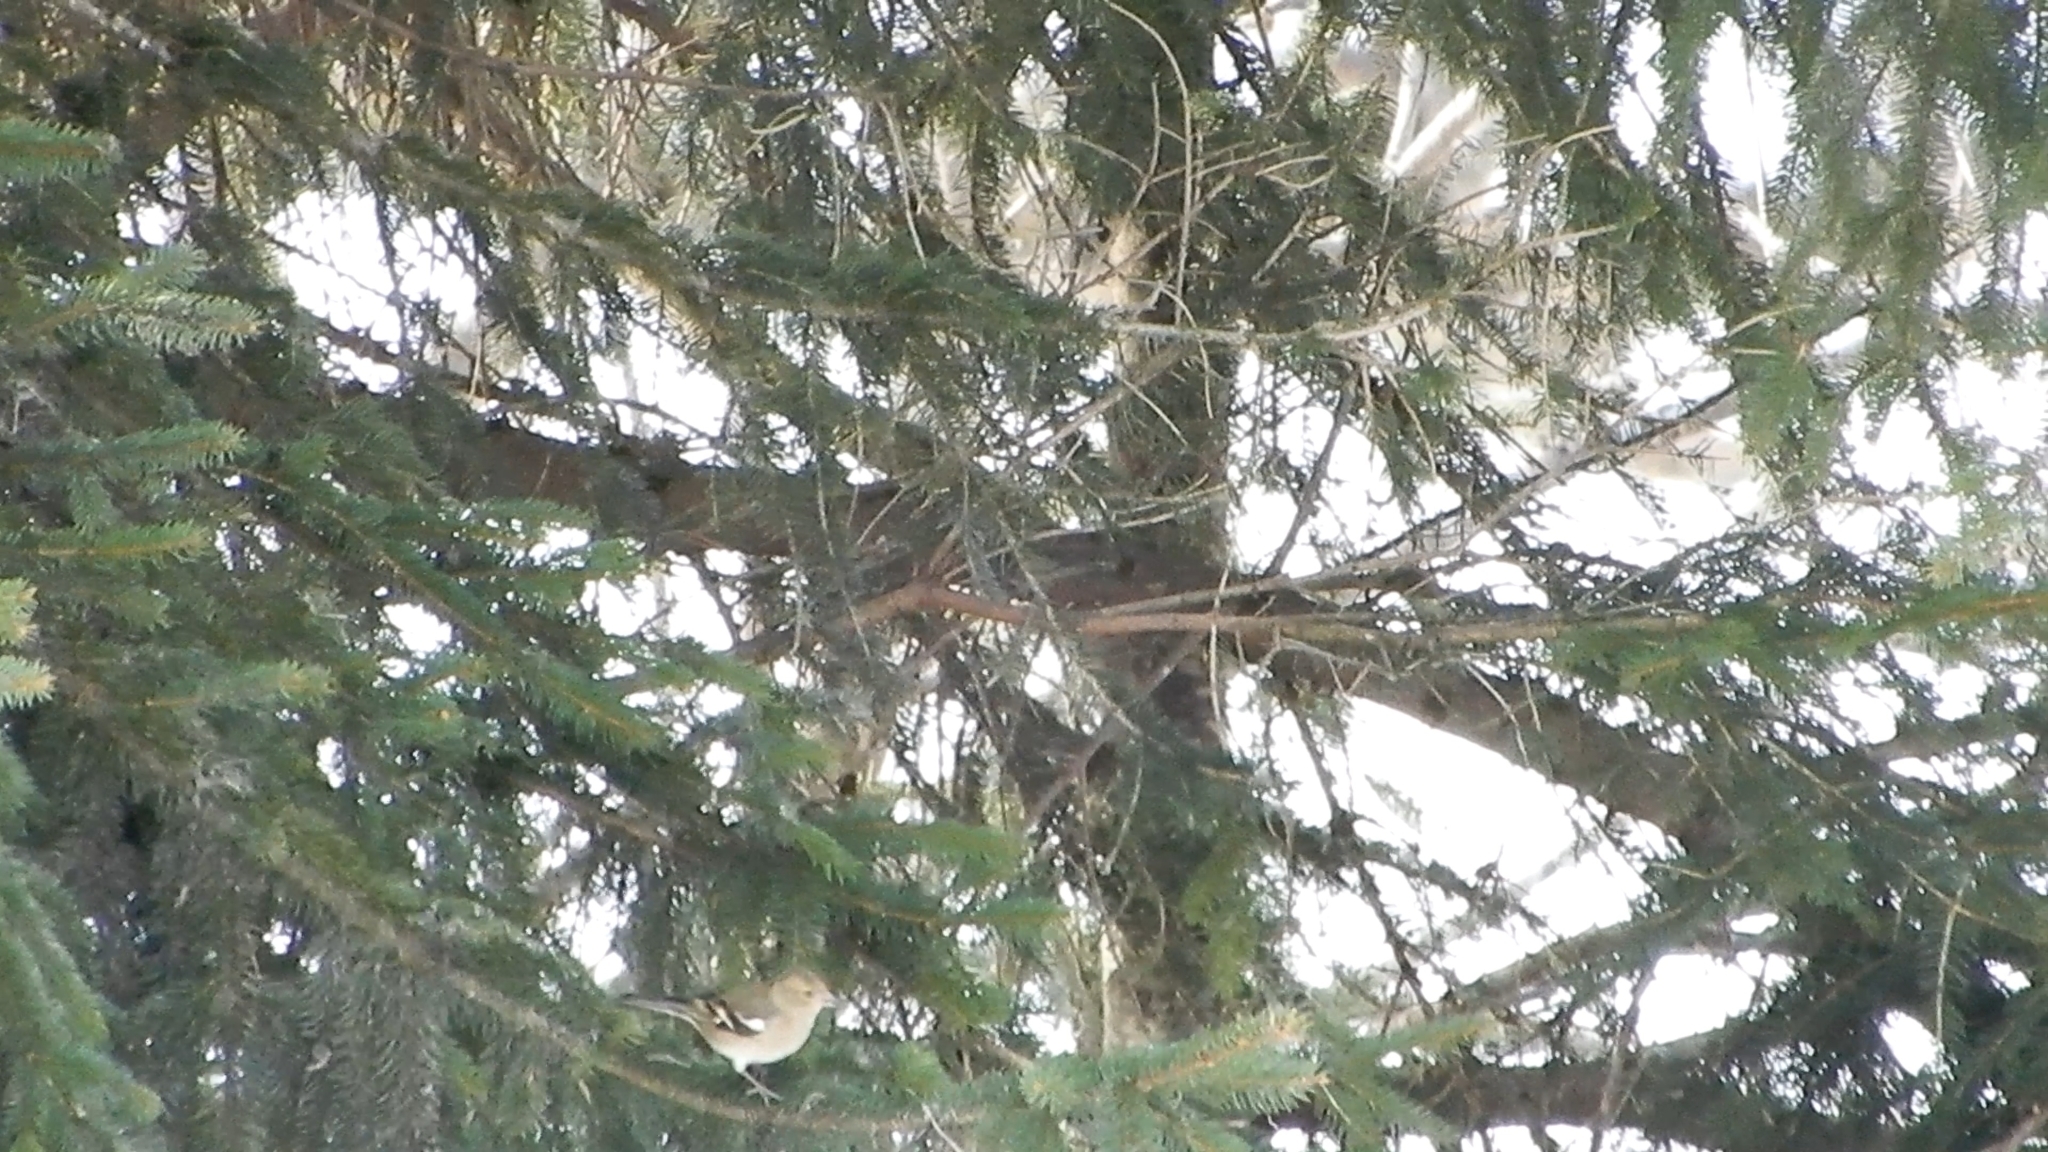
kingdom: Animalia
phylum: Chordata
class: Aves
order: Passeriformes
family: Fringillidae
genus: Fringilla
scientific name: Fringilla coelebs
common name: Common chaffinch
